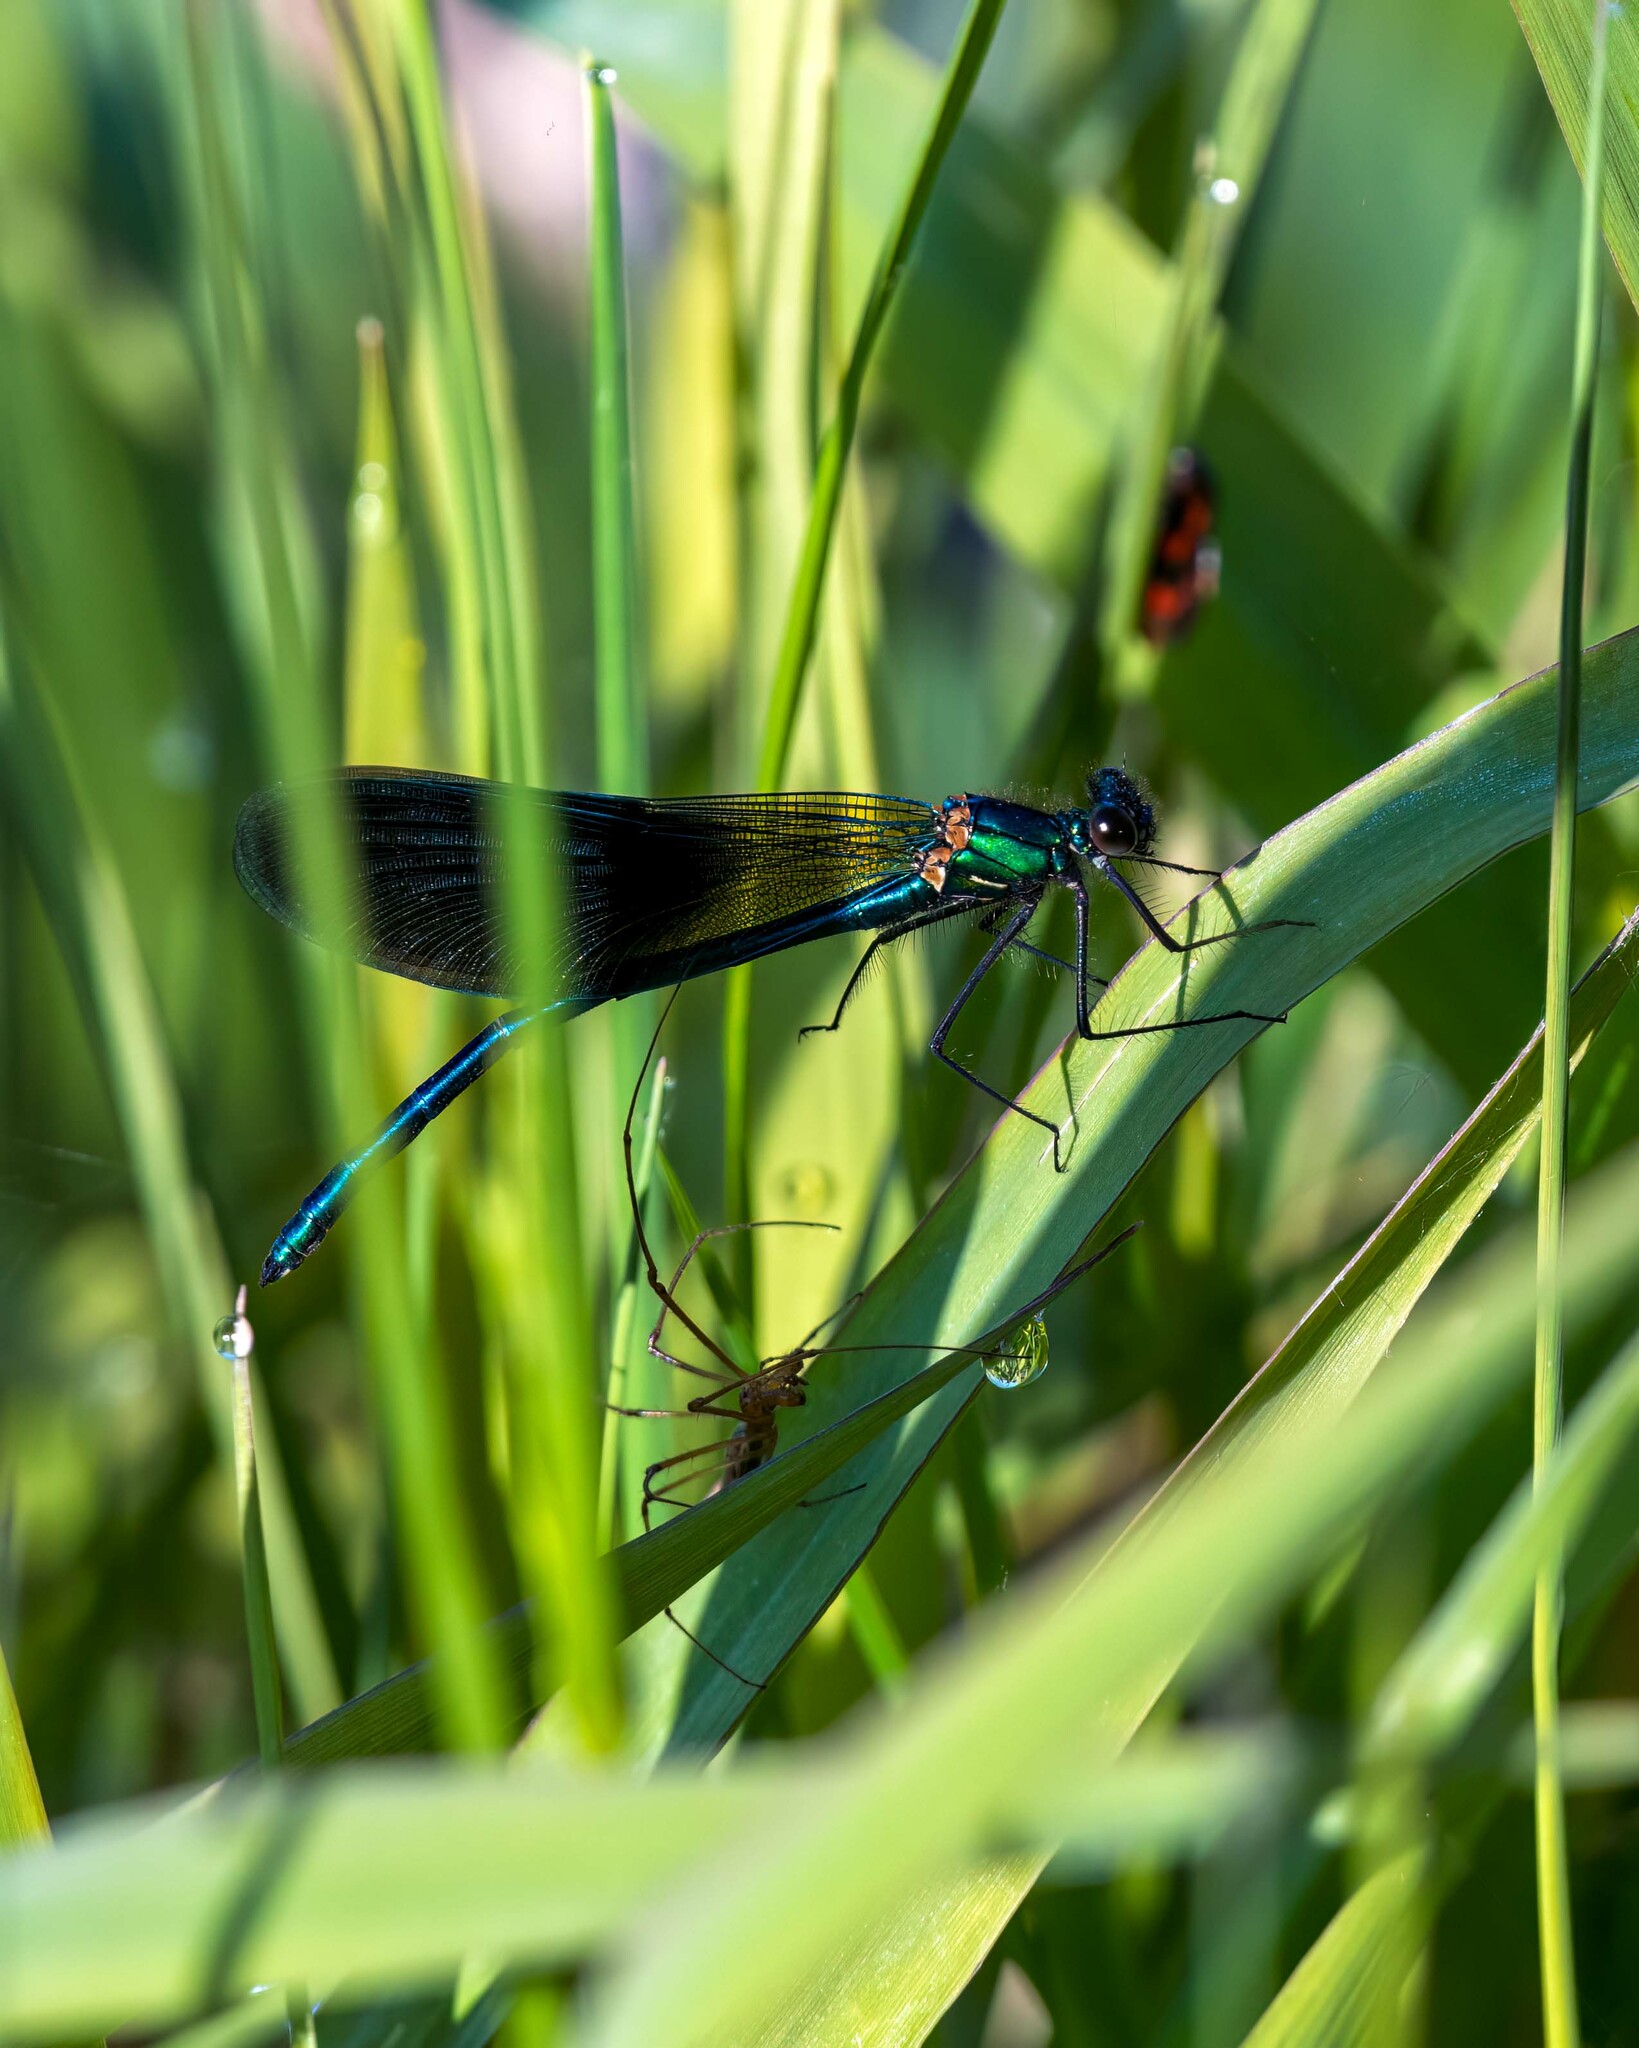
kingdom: Animalia
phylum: Arthropoda
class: Insecta
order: Odonata
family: Calopterygidae
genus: Calopteryx
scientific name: Calopteryx splendens
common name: Banded demoiselle
